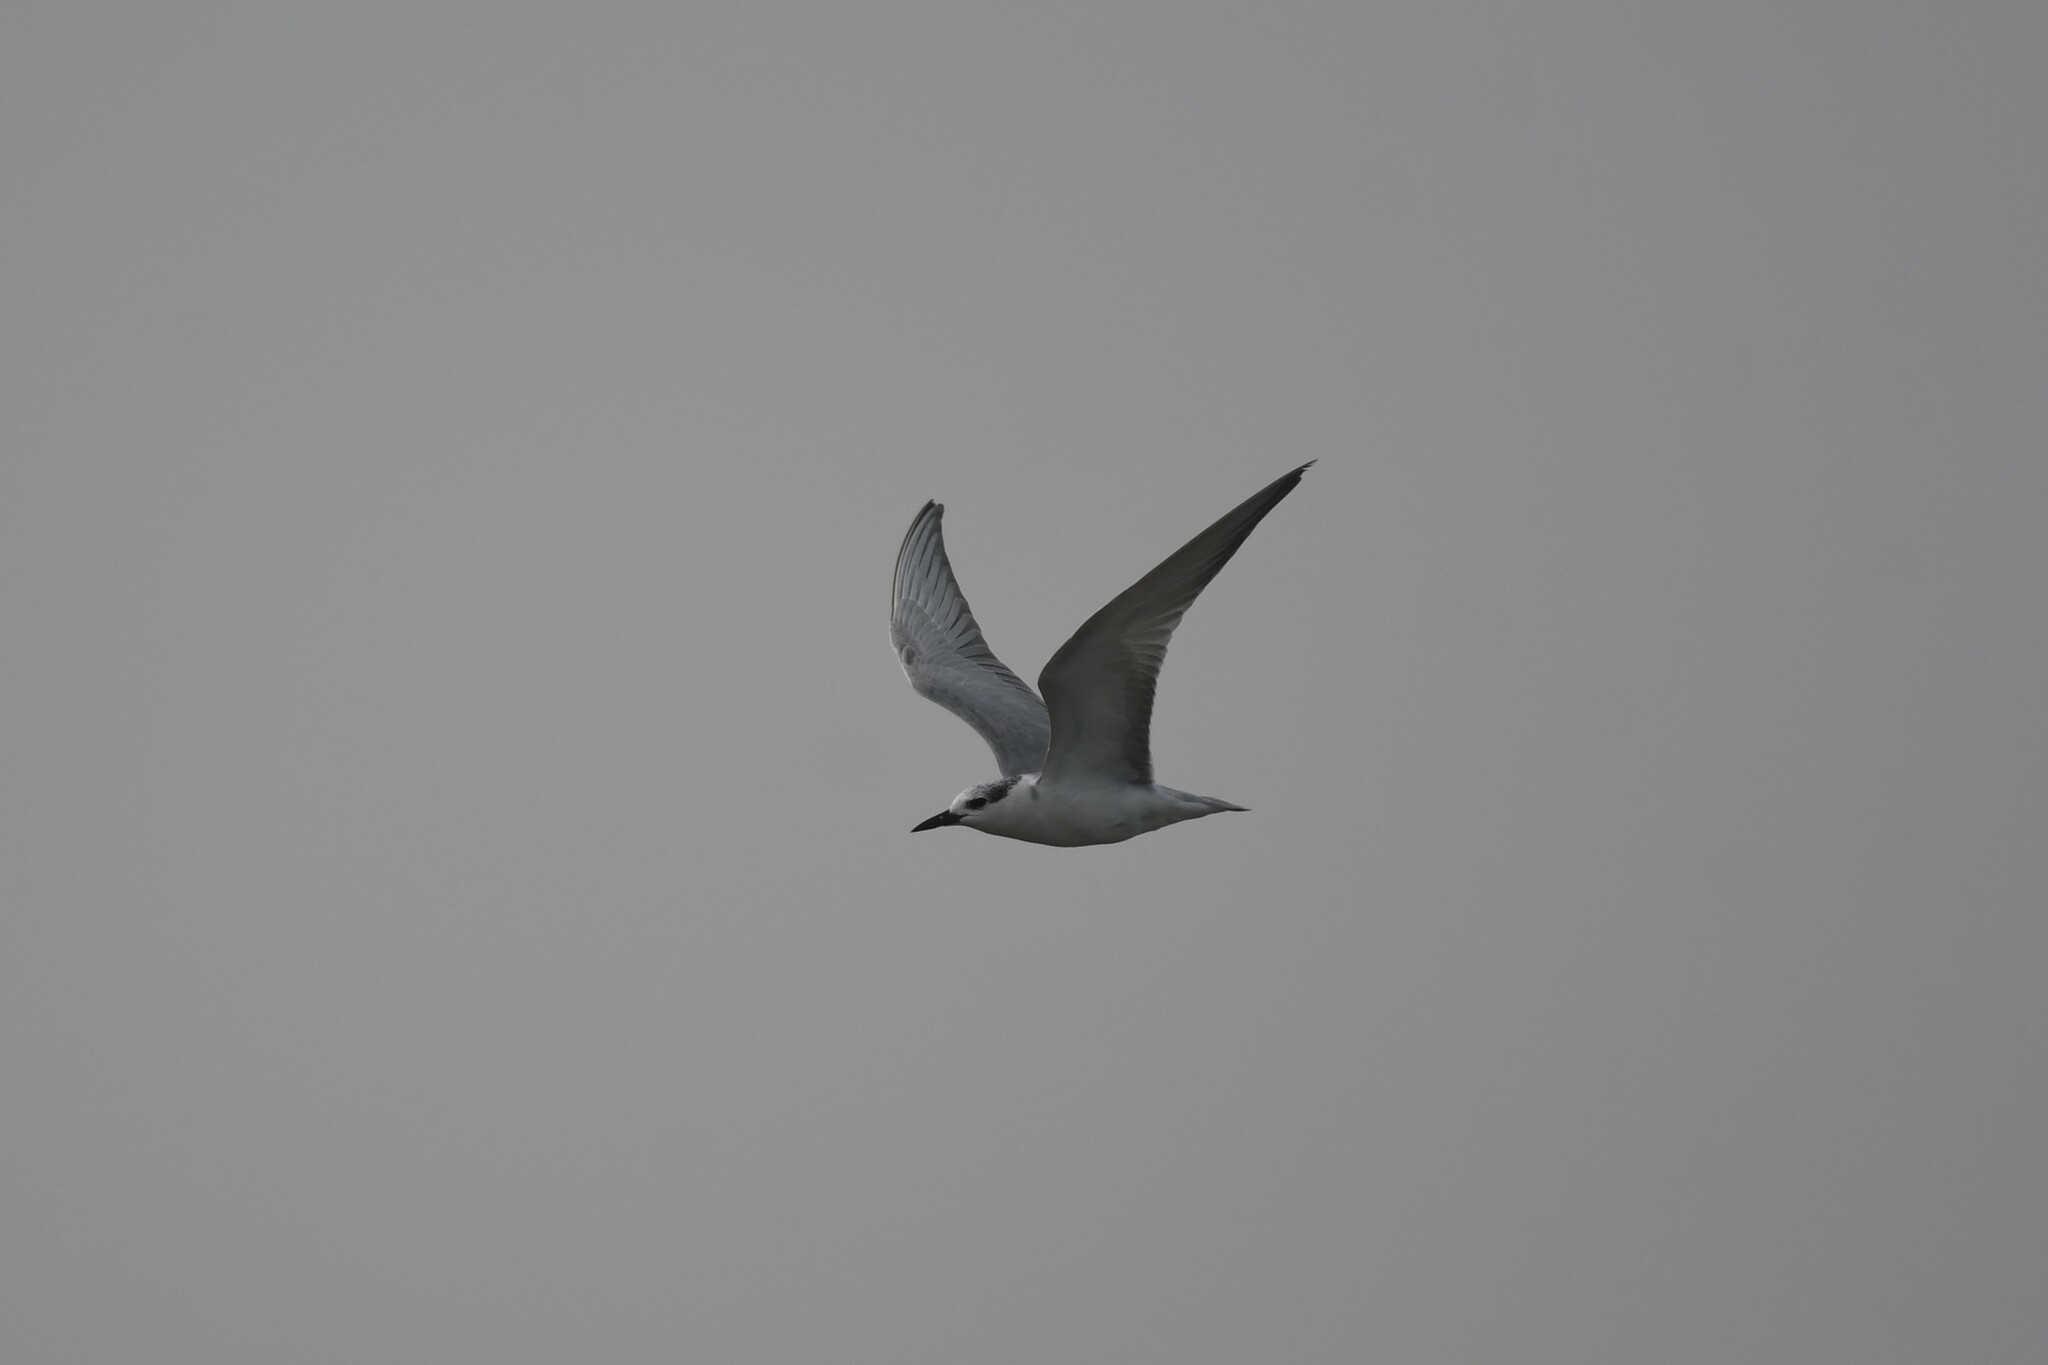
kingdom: Animalia
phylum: Chordata
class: Aves
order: Charadriiformes
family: Laridae
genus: Chlidonias
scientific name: Chlidonias hybrida
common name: Whiskered tern
